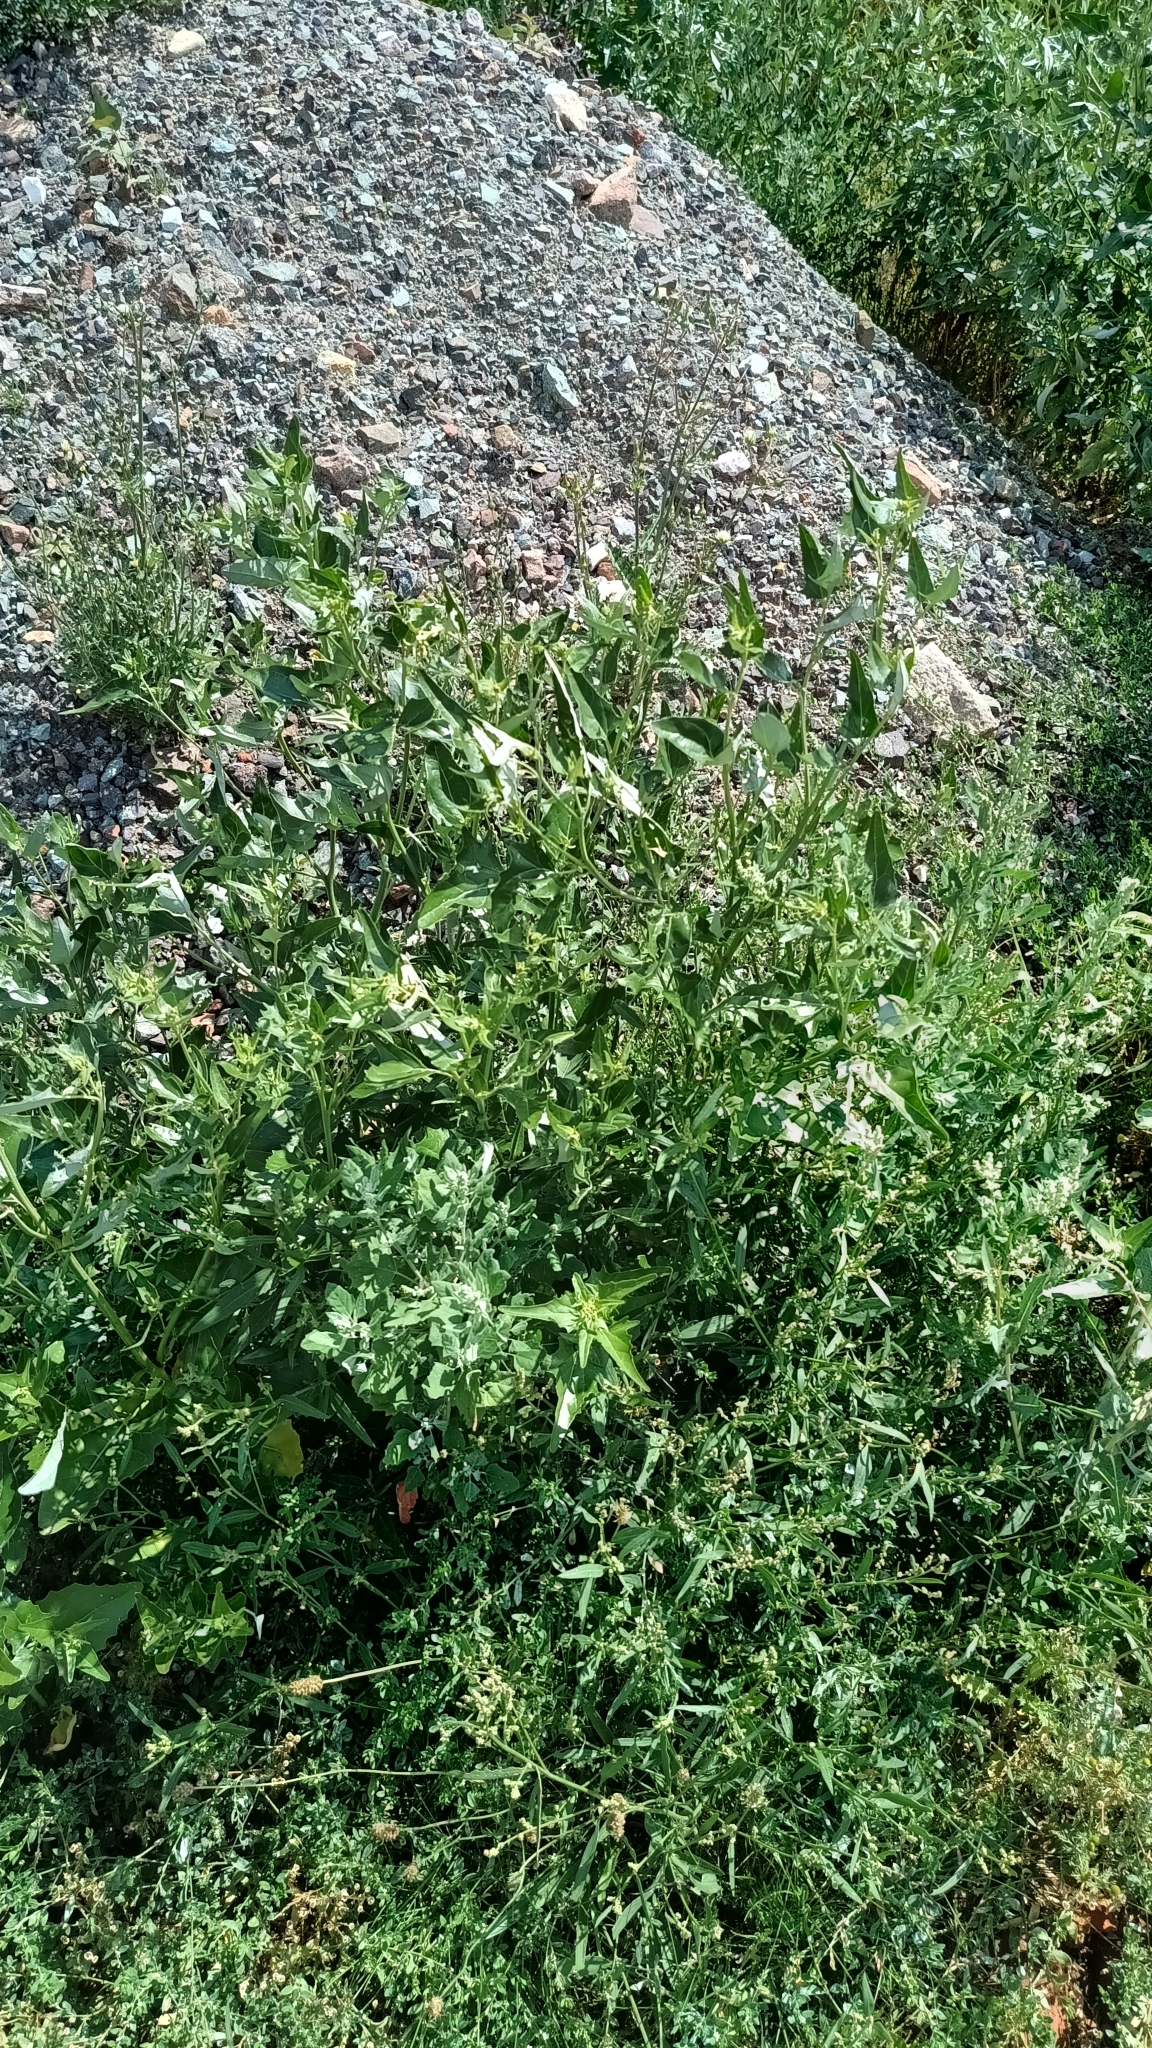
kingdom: Plantae
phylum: Tracheophyta
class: Magnoliopsida
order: Caryophyllales
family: Amaranthaceae
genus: Atriplex
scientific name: Atriplex sagittata
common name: Purple orache
